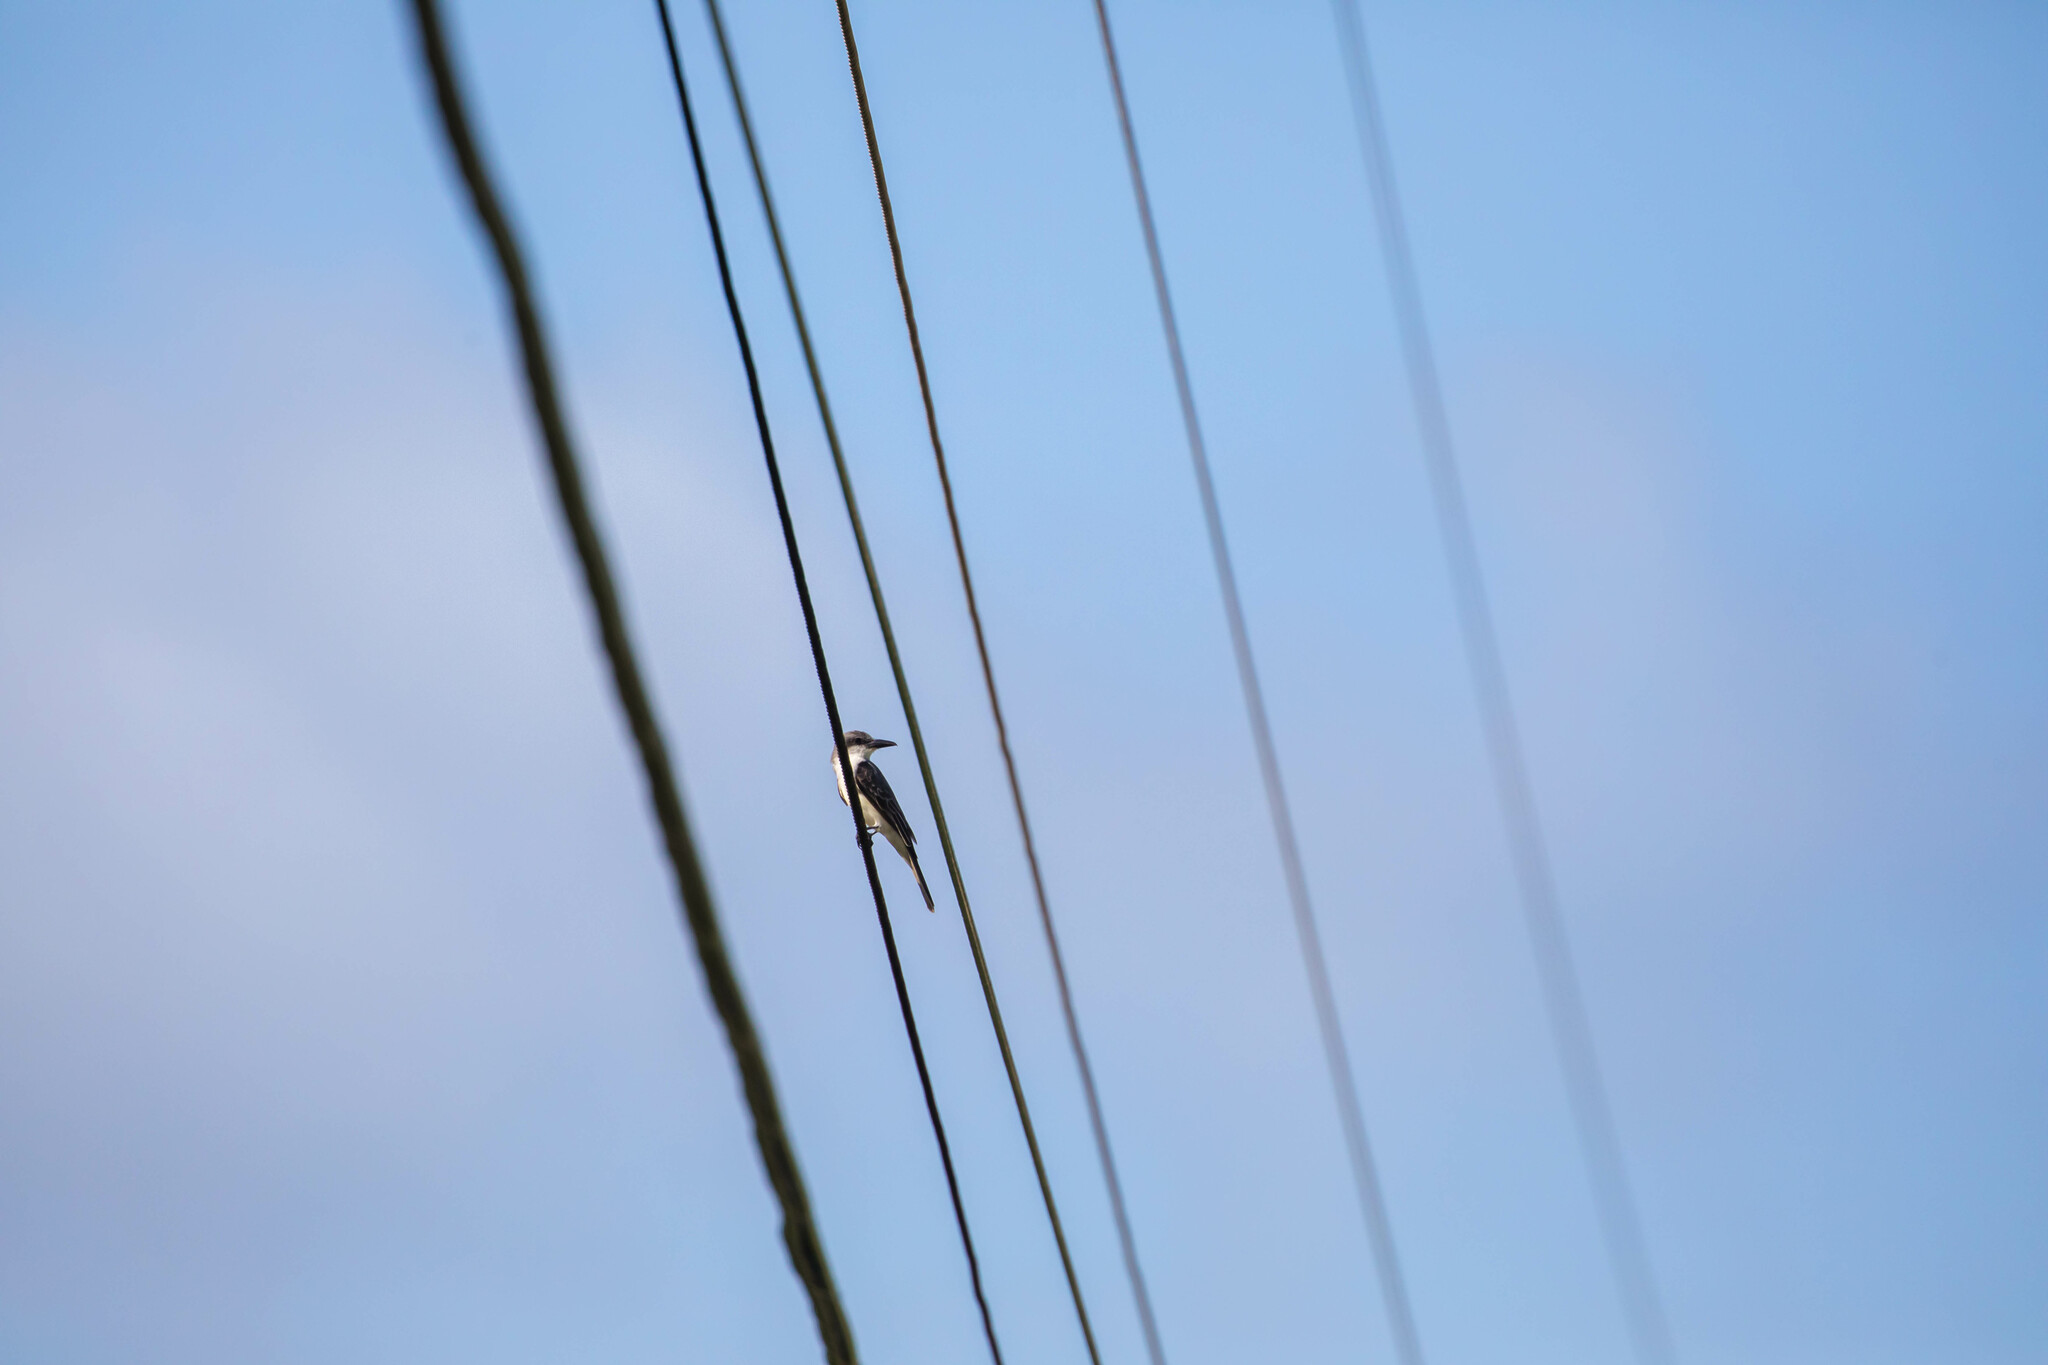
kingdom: Animalia
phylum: Chordata
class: Aves
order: Passeriformes
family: Tyrannidae
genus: Tyrannus
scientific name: Tyrannus dominicensis
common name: Gray kingbird
